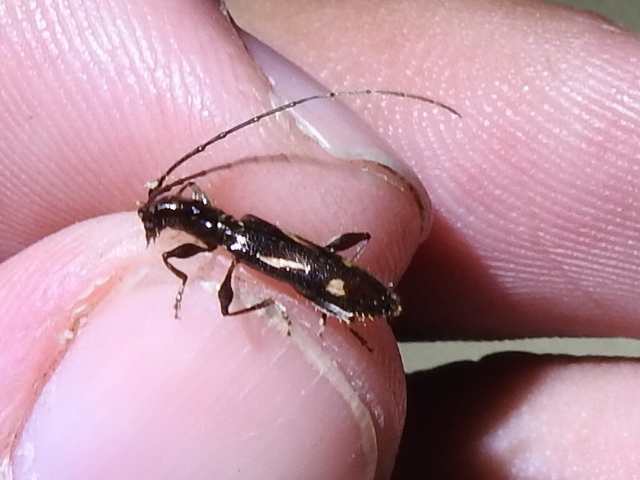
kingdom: Animalia
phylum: Arthropoda
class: Insecta
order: Coleoptera
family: Cerambycidae
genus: Neocompsa
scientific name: Neocompsa exclamationis
